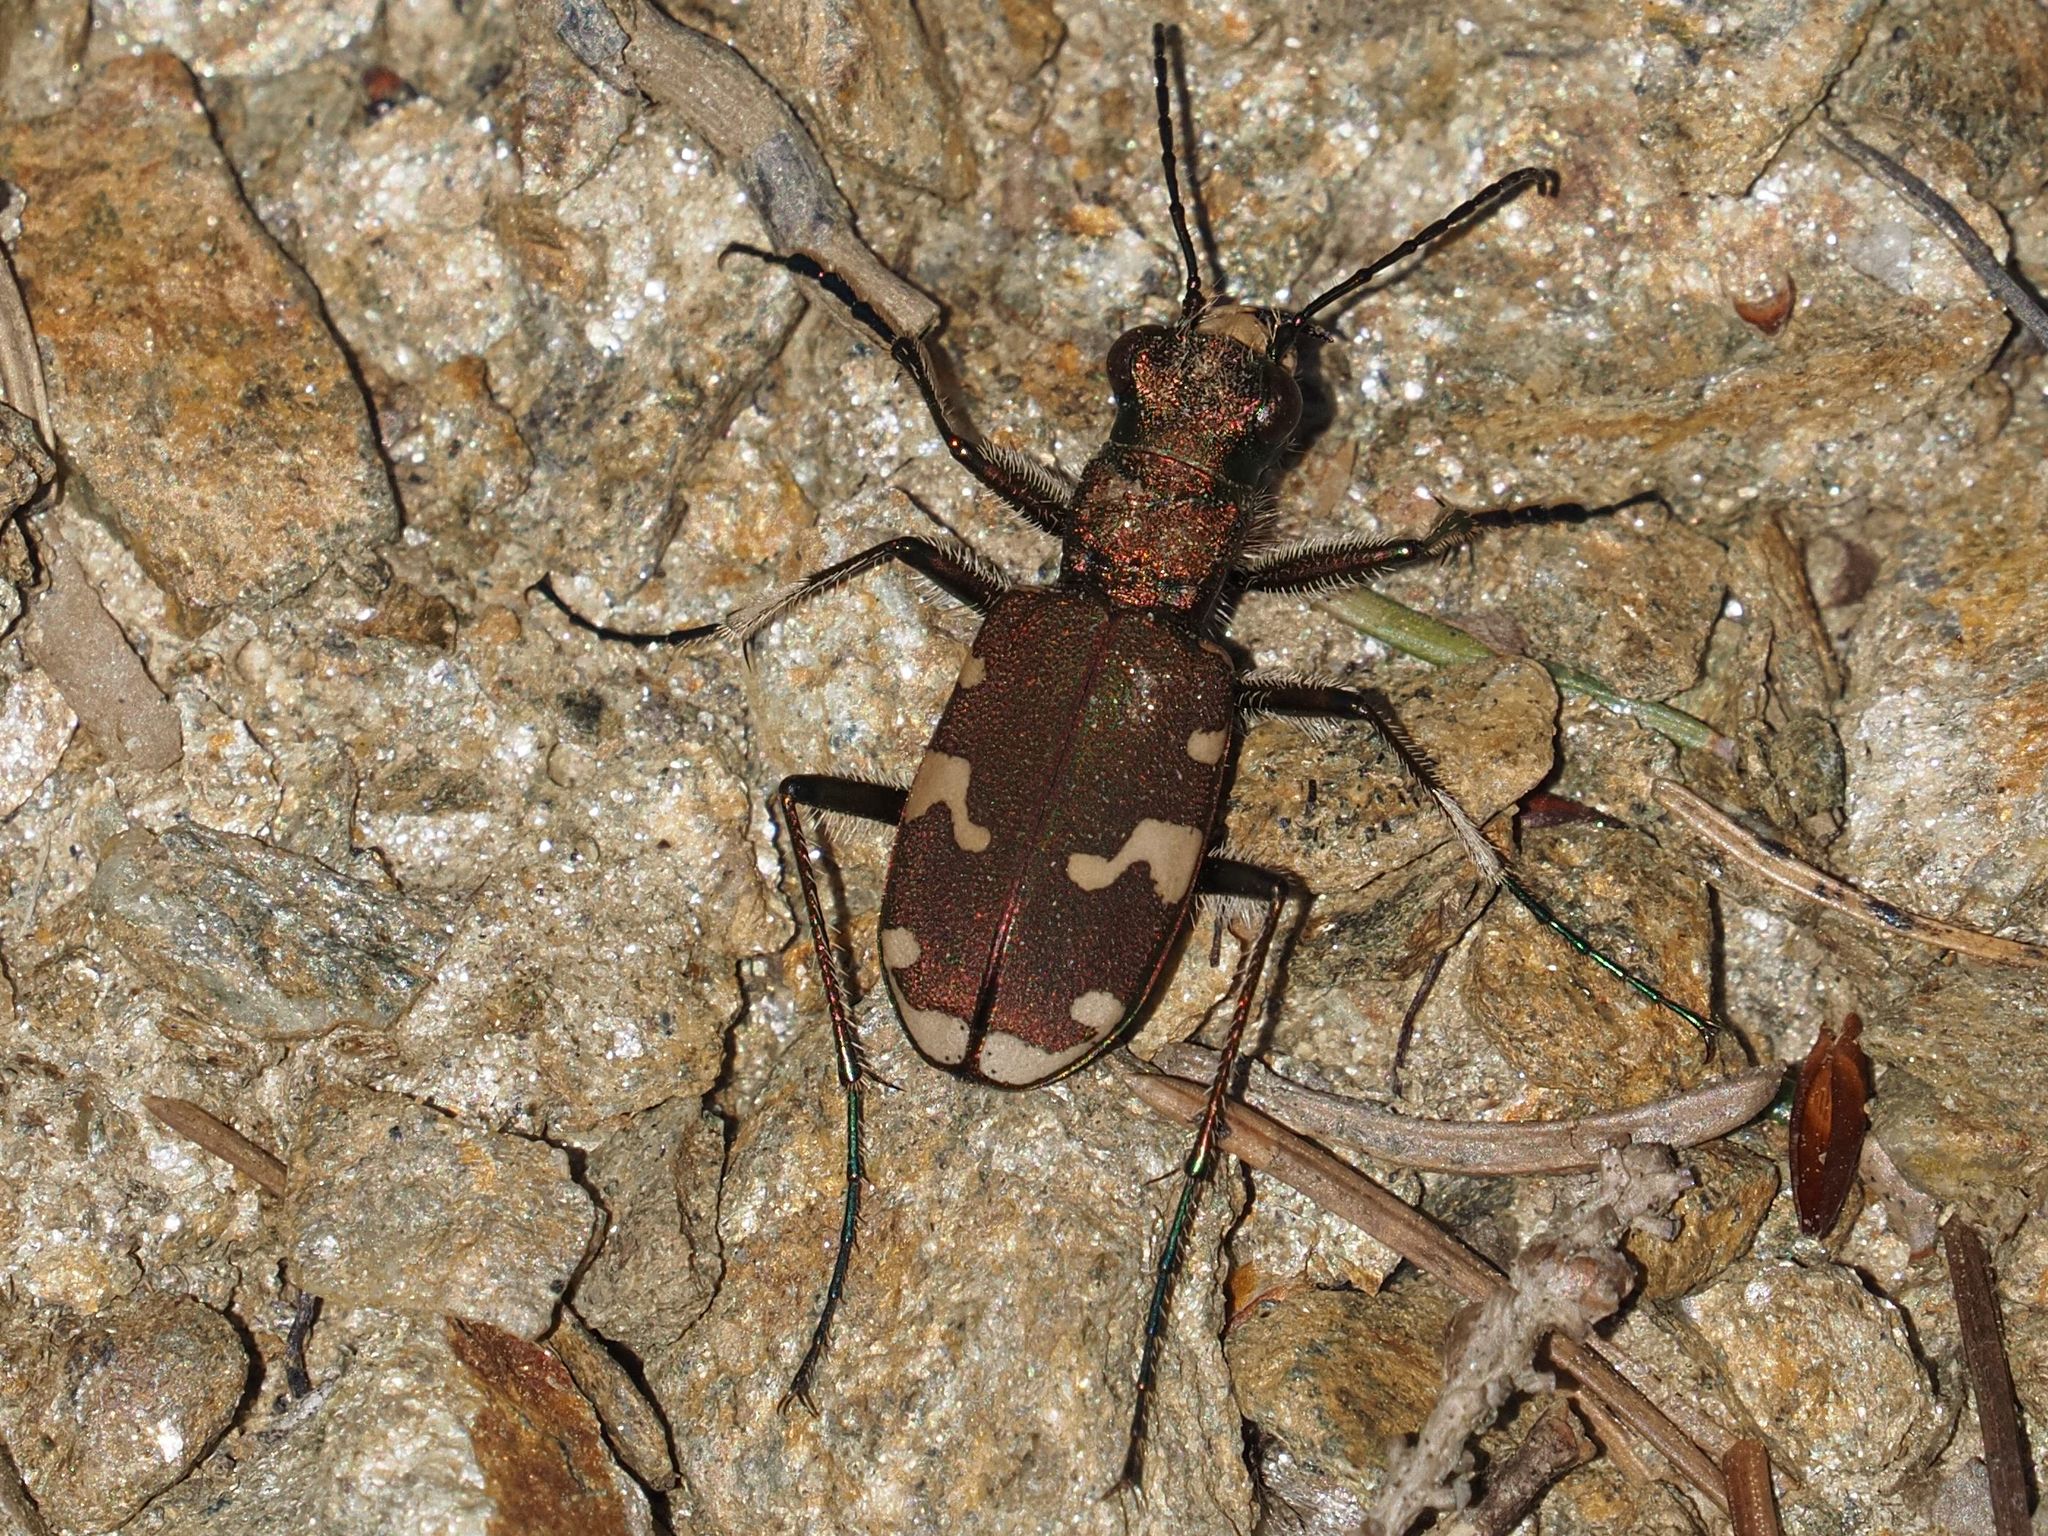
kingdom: Animalia
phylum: Arthropoda
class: Insecta
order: Coleoptera
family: Carabidae
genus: Cicindela
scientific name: Cicindela sylvicola
